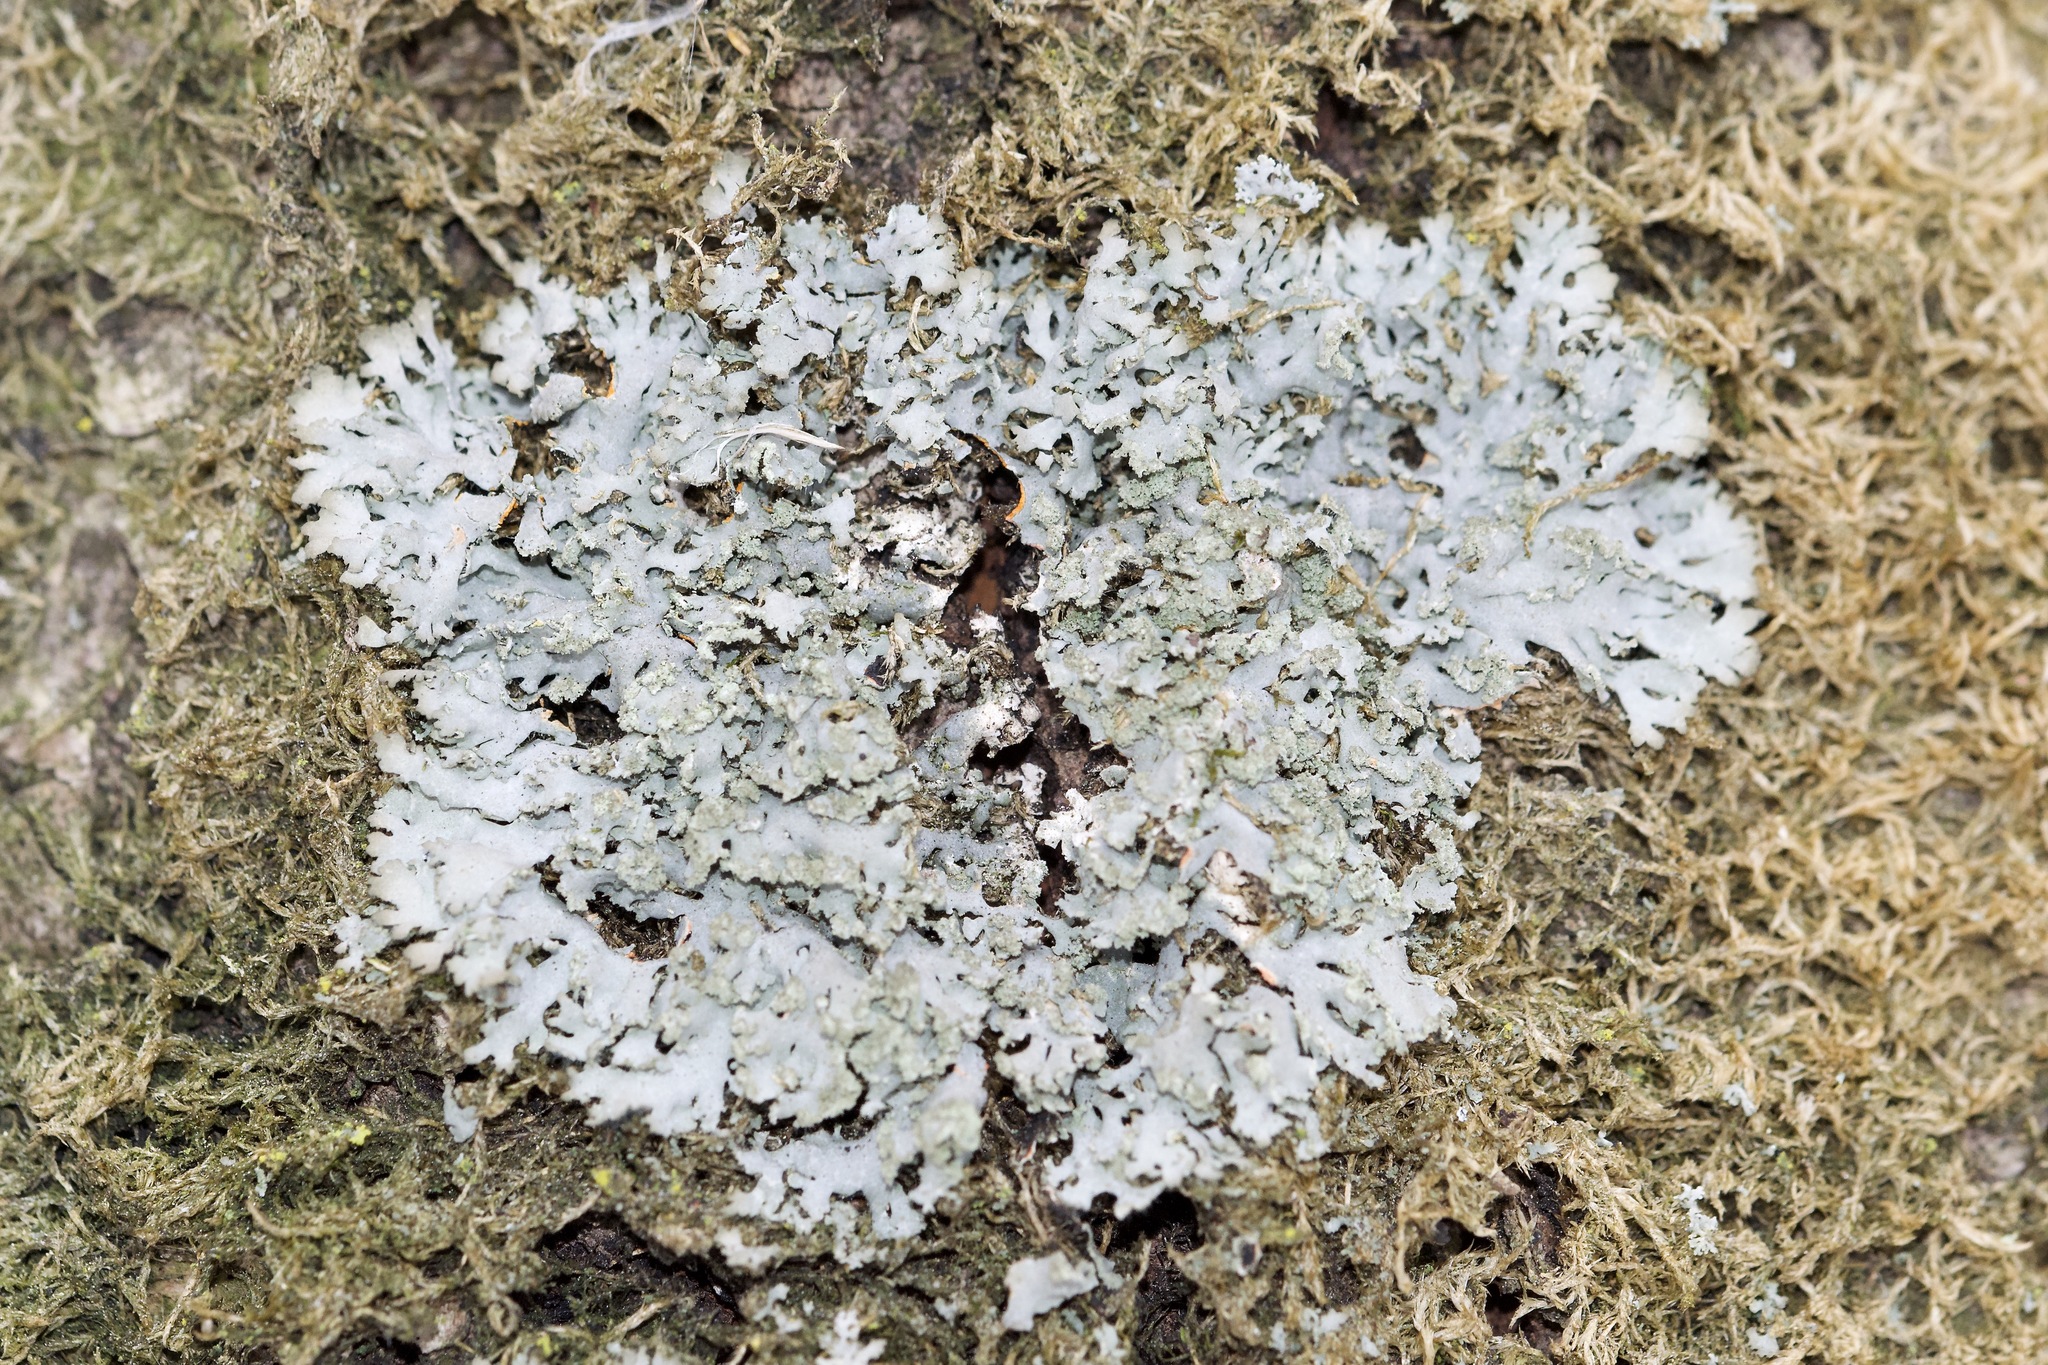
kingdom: Fungi
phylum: Ascomycota
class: Lecanoromycetes
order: Caliciales
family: Physciaceae
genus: Phaeophyscia
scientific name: Phaeophyscia rubropulchra
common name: Orange-cored shadow lichen
